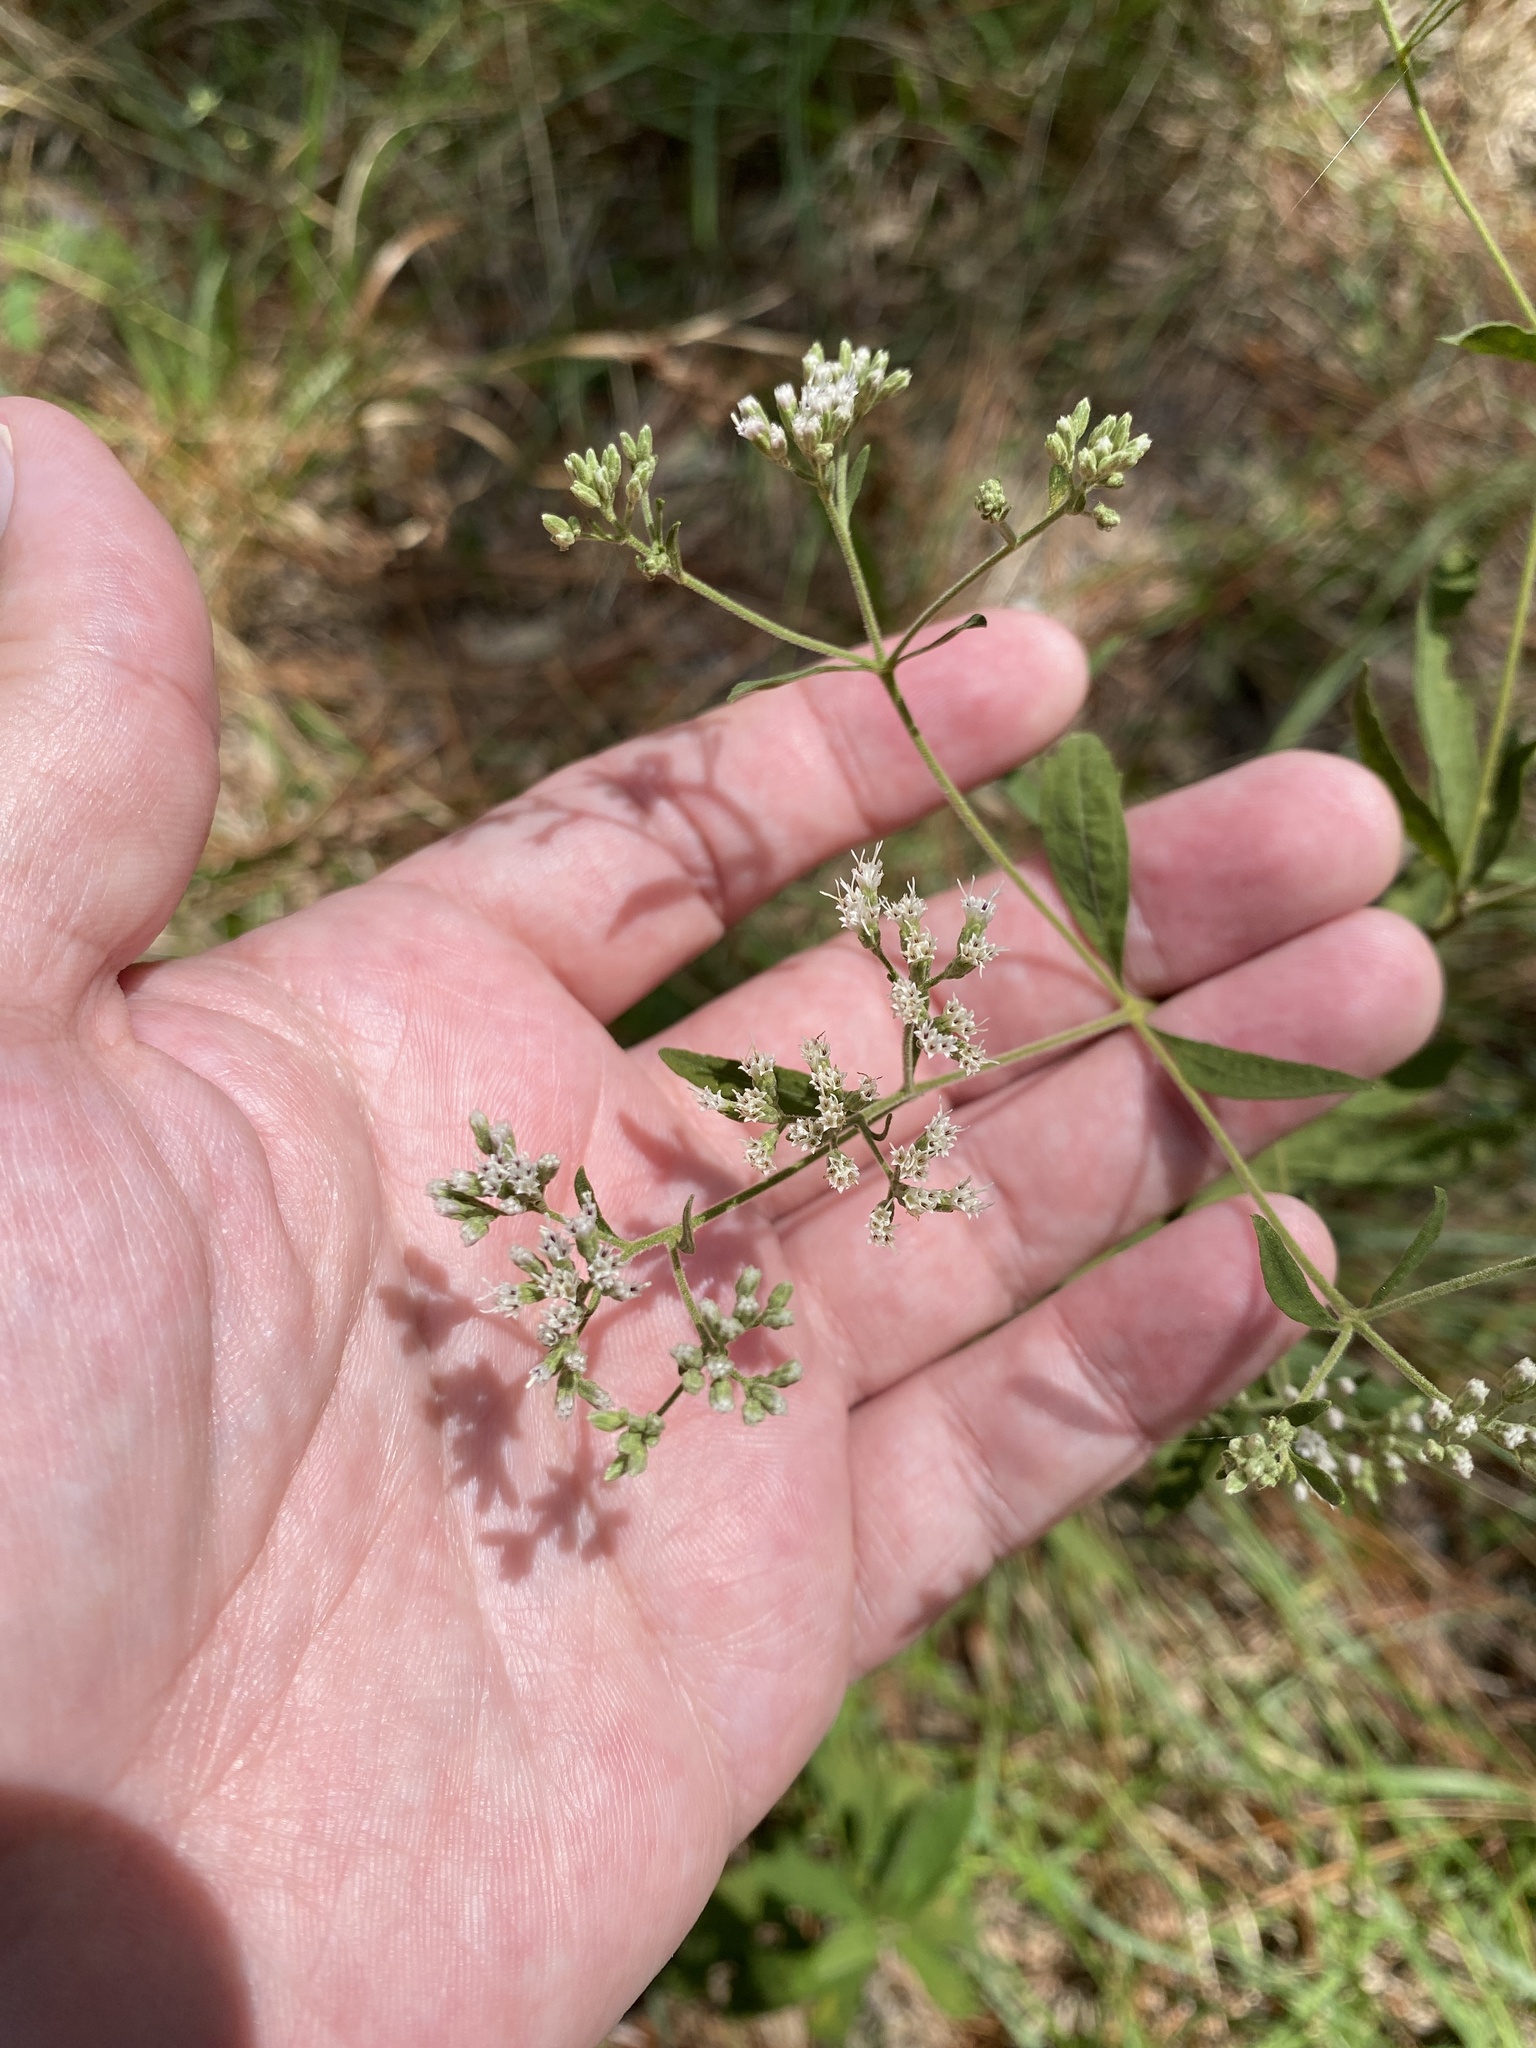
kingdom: Plantae
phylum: Tracheophyta
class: Magnoliopsida
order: Asterales
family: Asteraceae
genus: Eupatorium
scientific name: Eupatorium semiserratum
